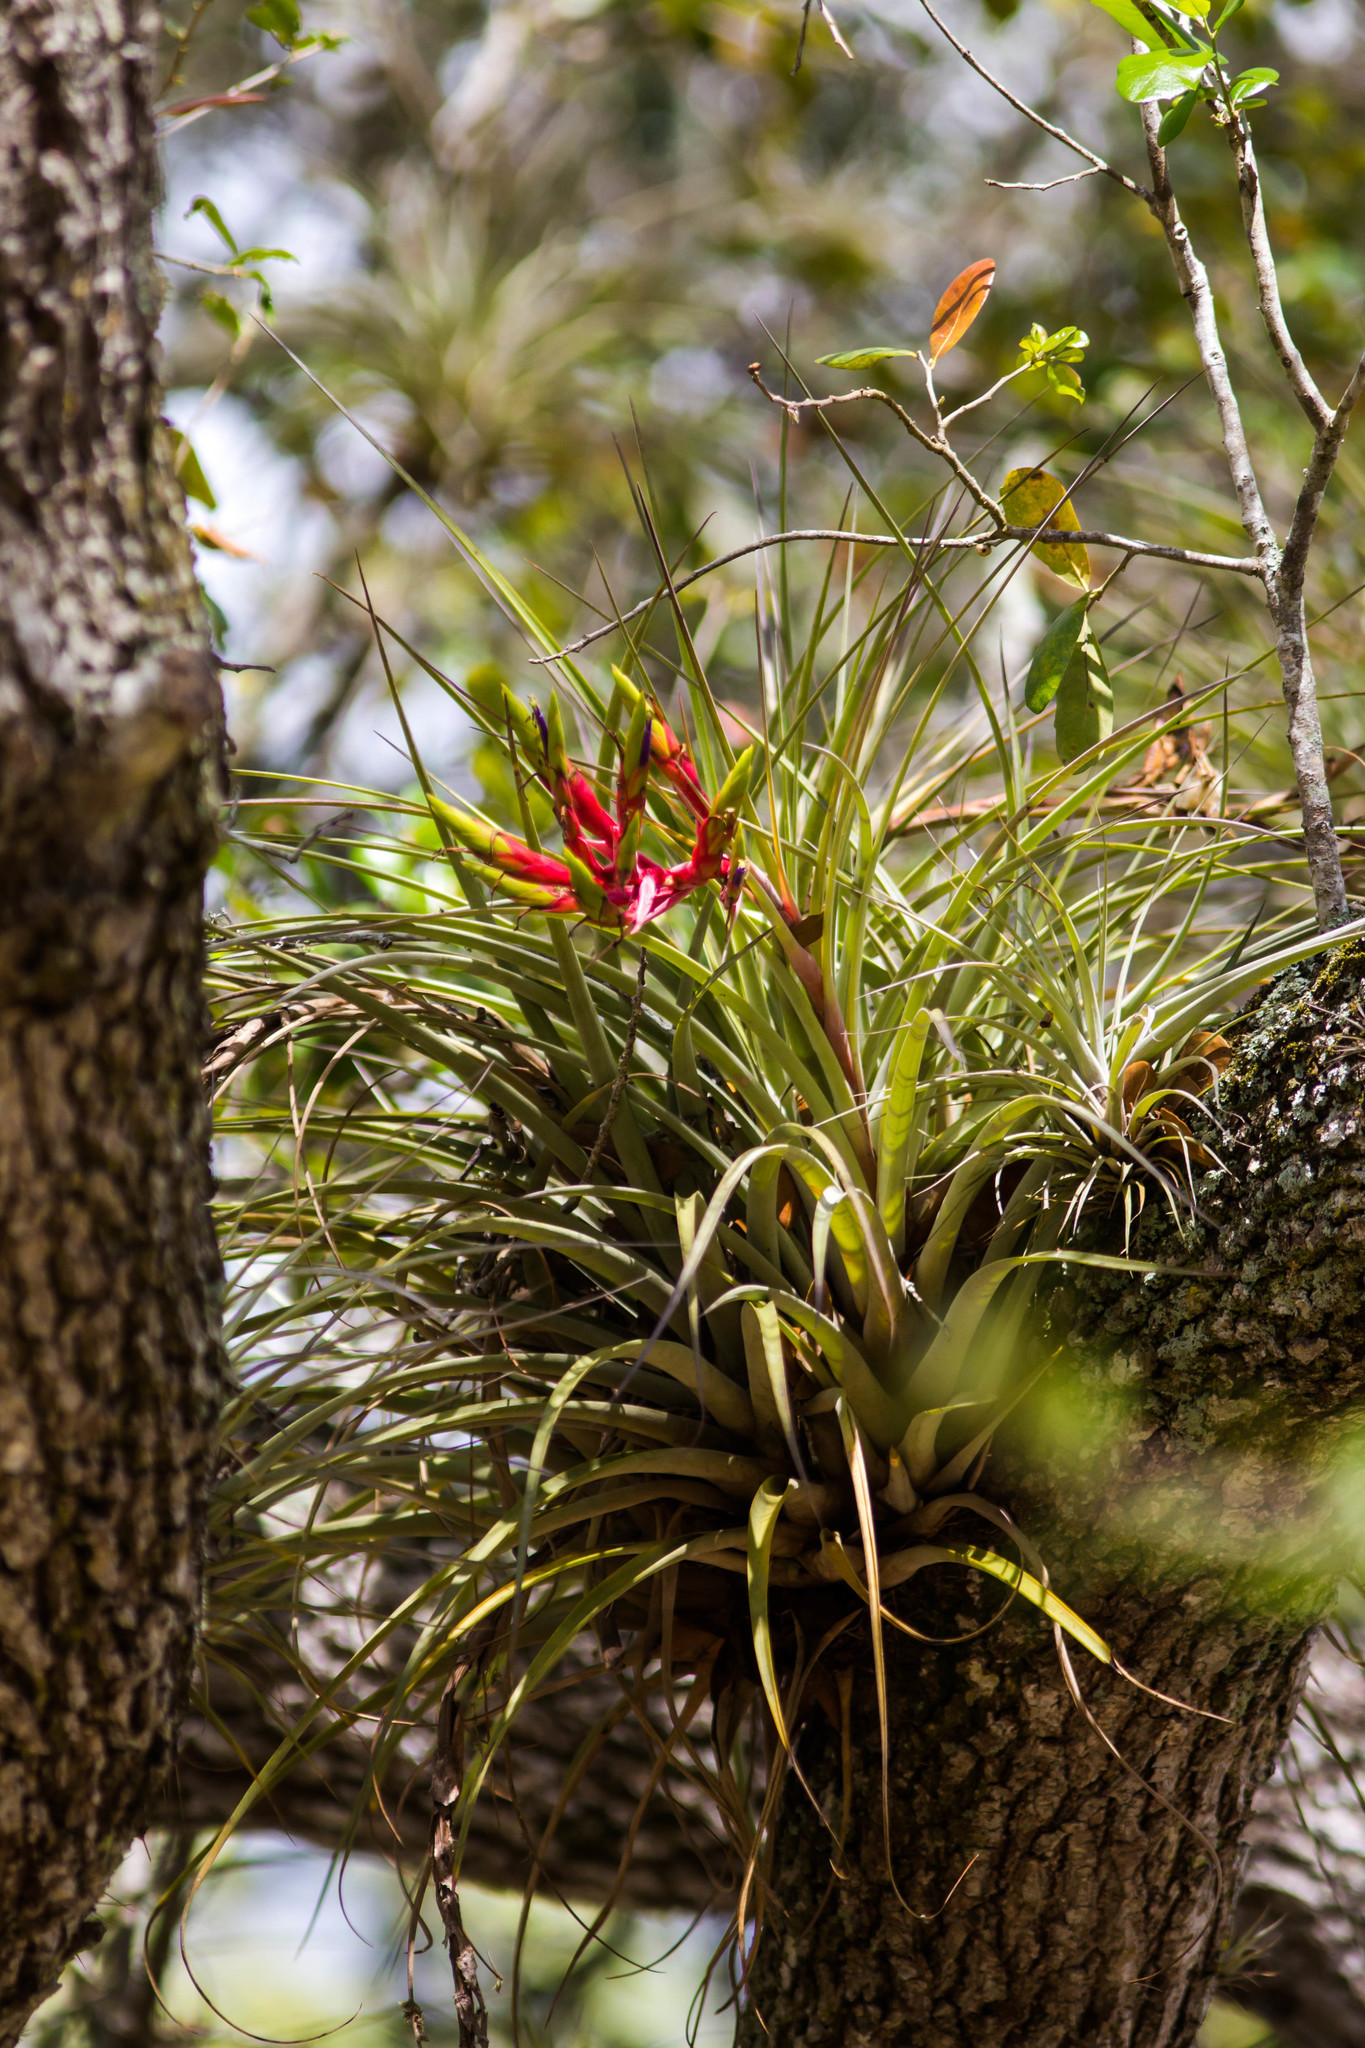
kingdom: Plantae
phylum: Tracheophyta
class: Liliopsida
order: Poales
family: Bromeliaceae
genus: Tillandsia
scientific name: Tillandsia fasciculata
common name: Giant airplant
